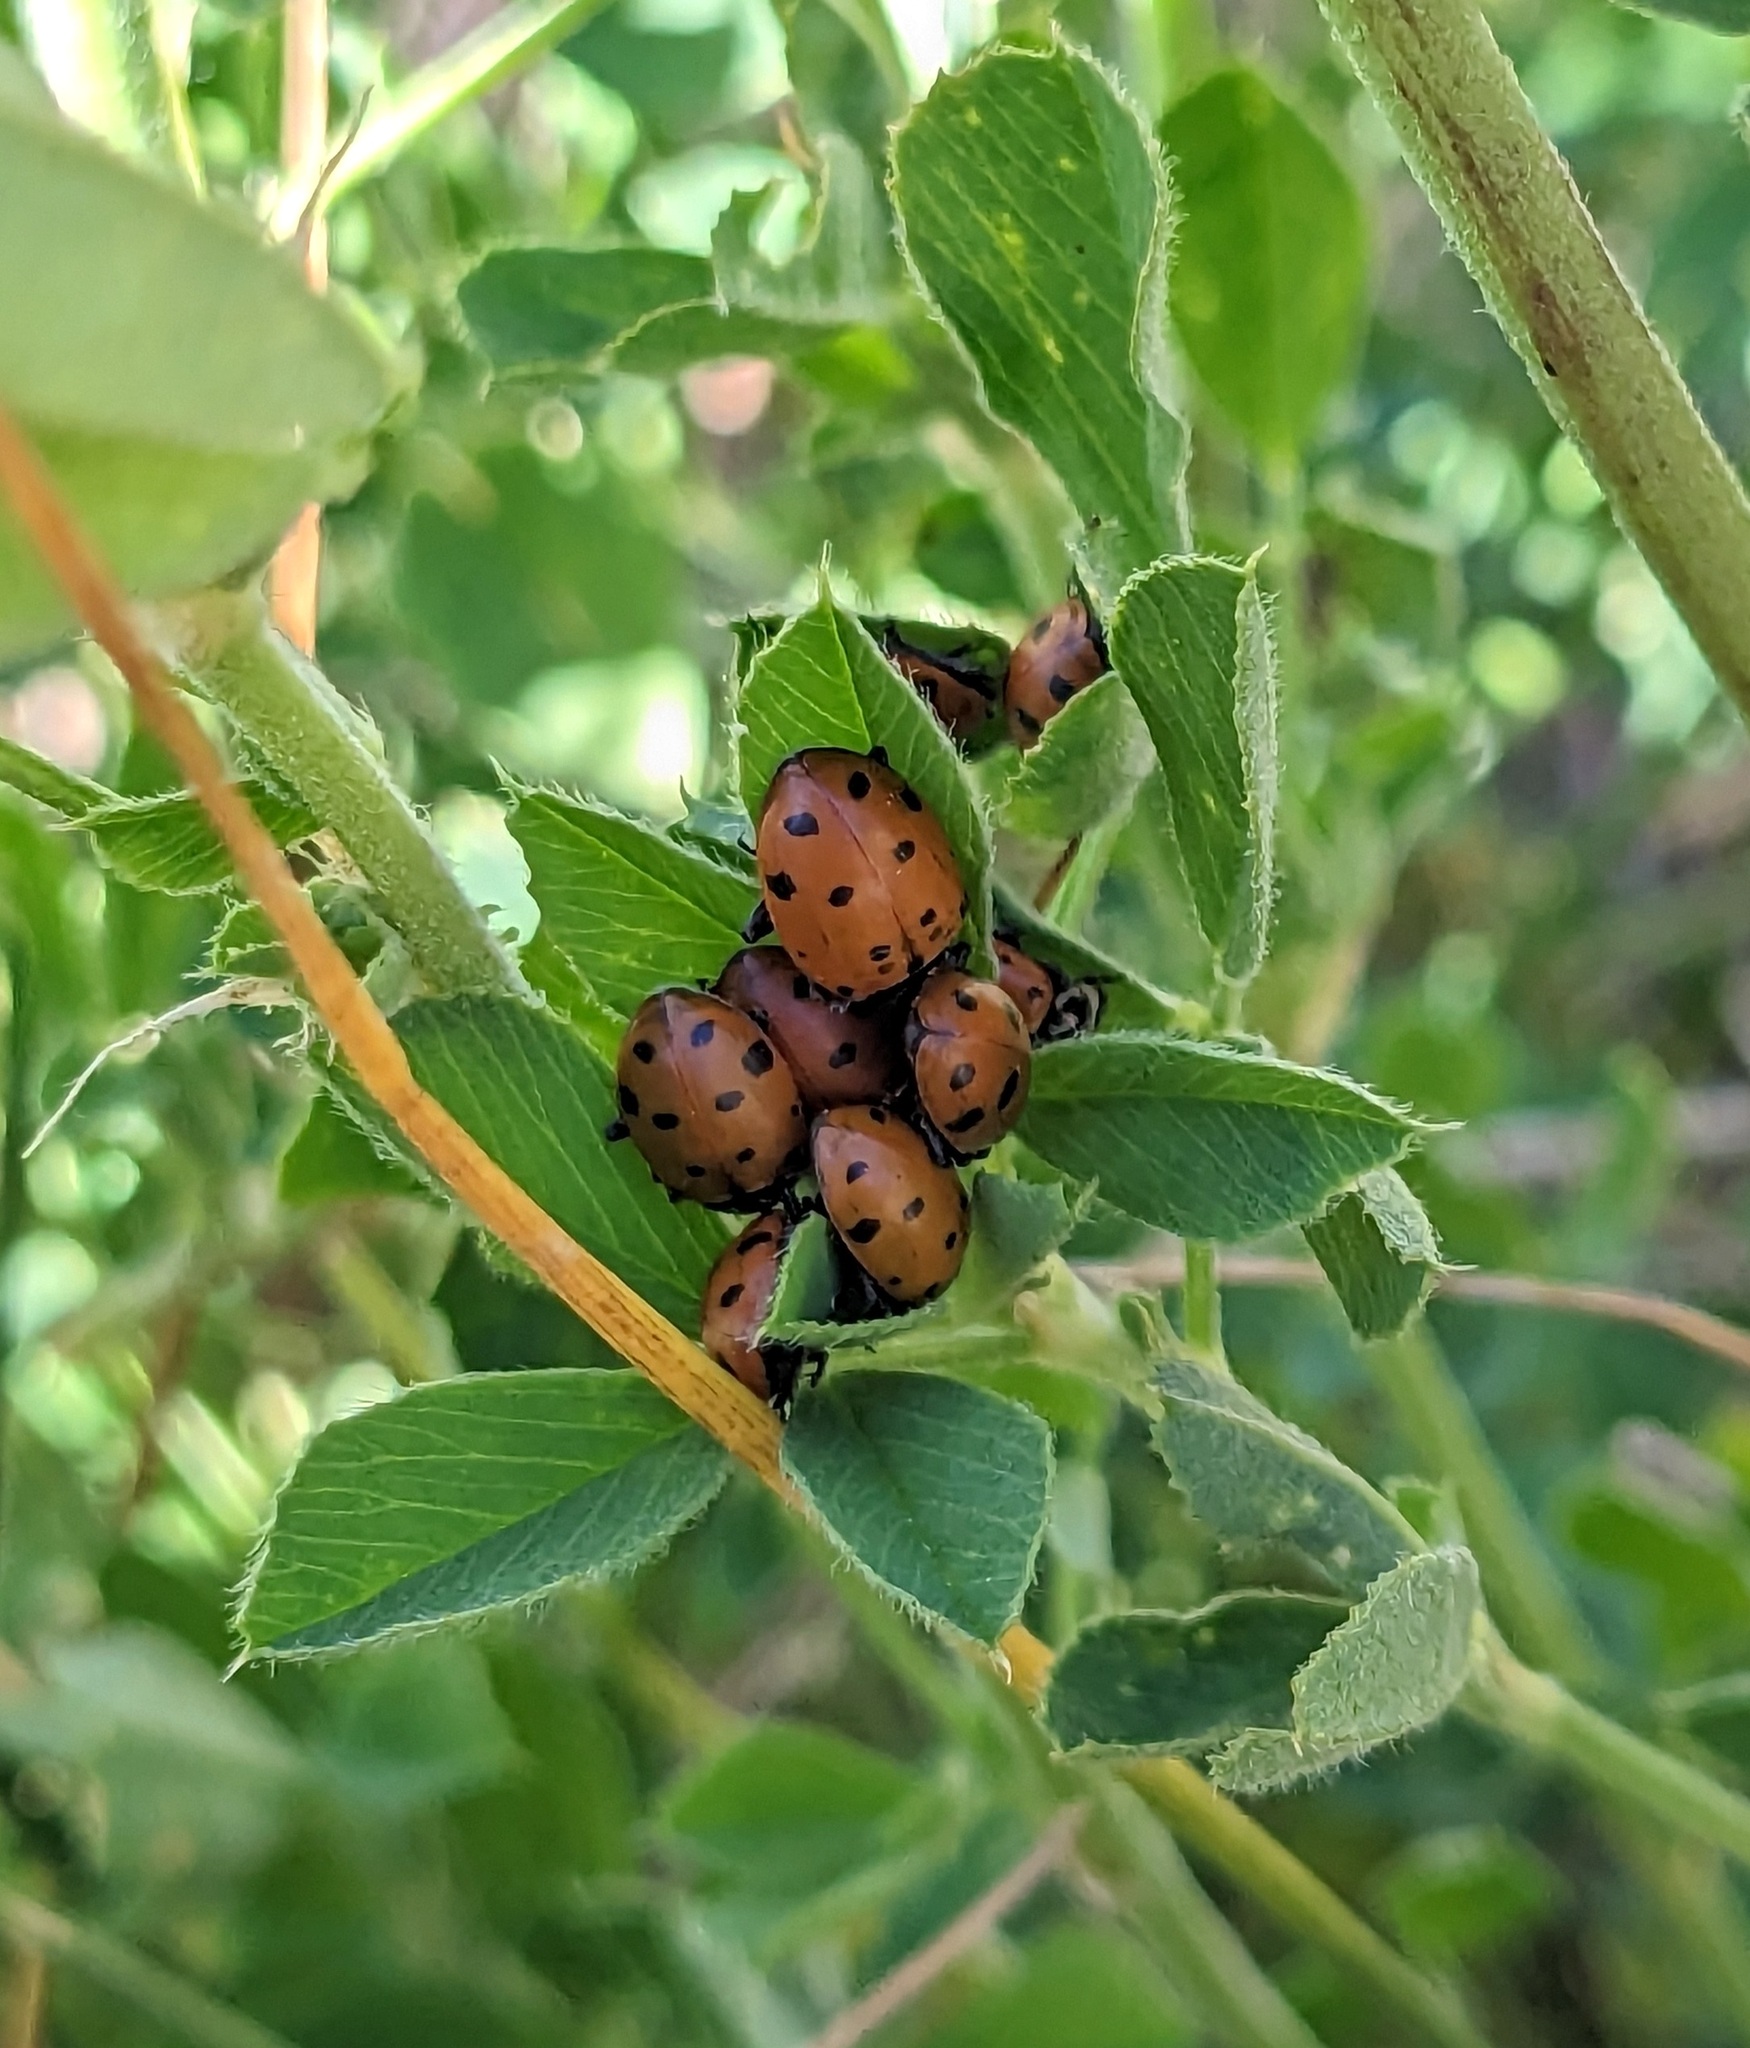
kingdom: Animalia
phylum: Arthropoda
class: Insecta
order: Coleoptera
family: Coccinellidae
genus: Hippodamia
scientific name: Hippodamia convergens
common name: Convergent lady beetle
